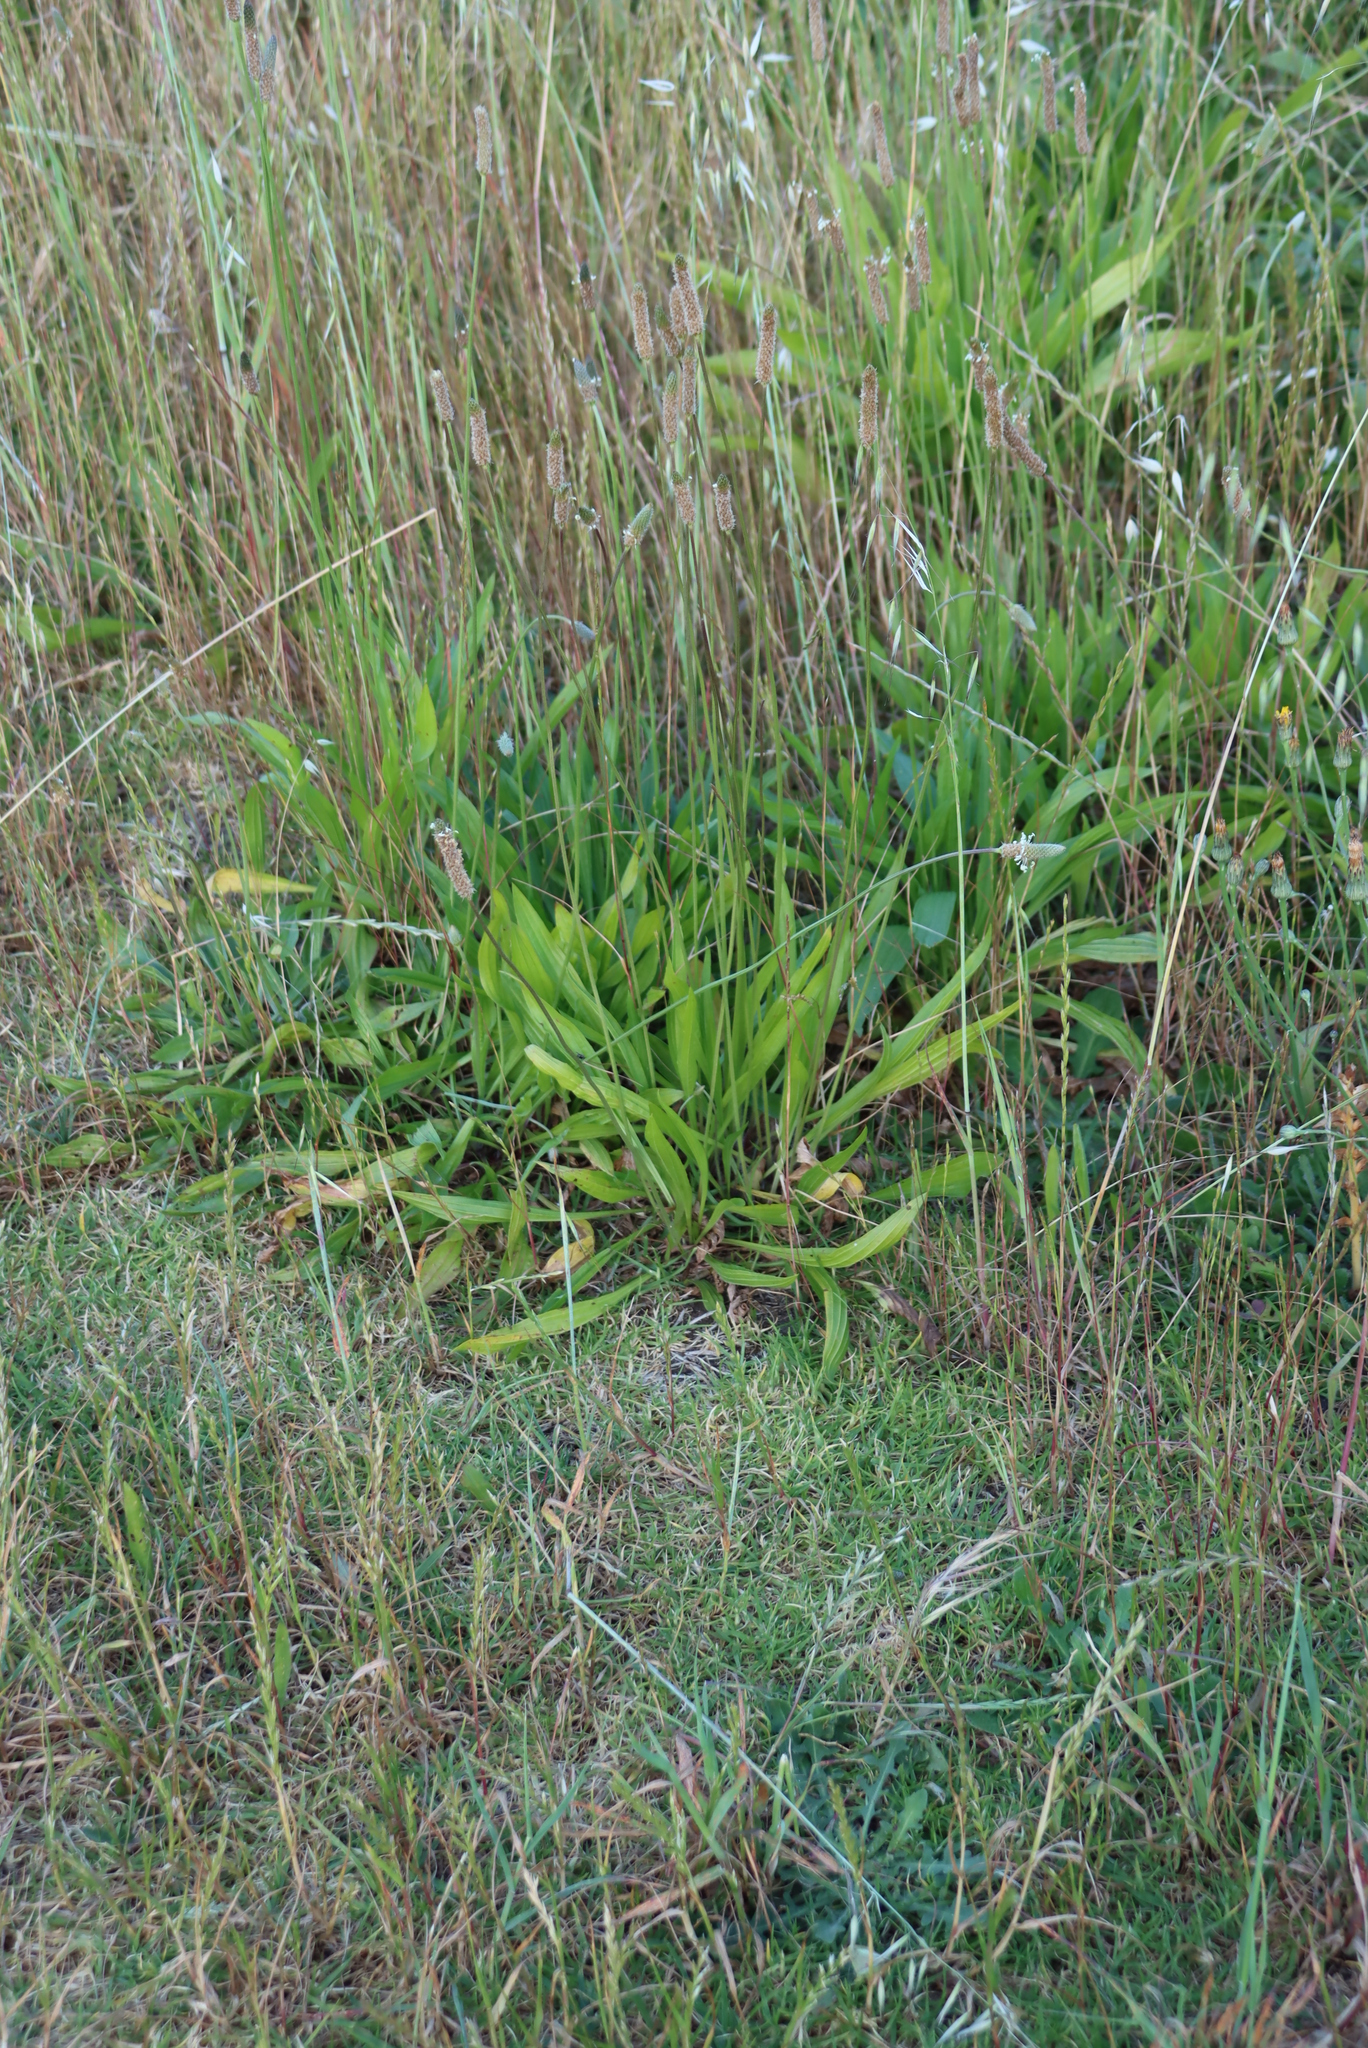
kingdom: Plantae
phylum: Tracheophyta
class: Magnoliopsida
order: Lamiales
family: Plantaginaceae
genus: Plantago
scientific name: Plantago lanceolata
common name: Ribwort plantain
